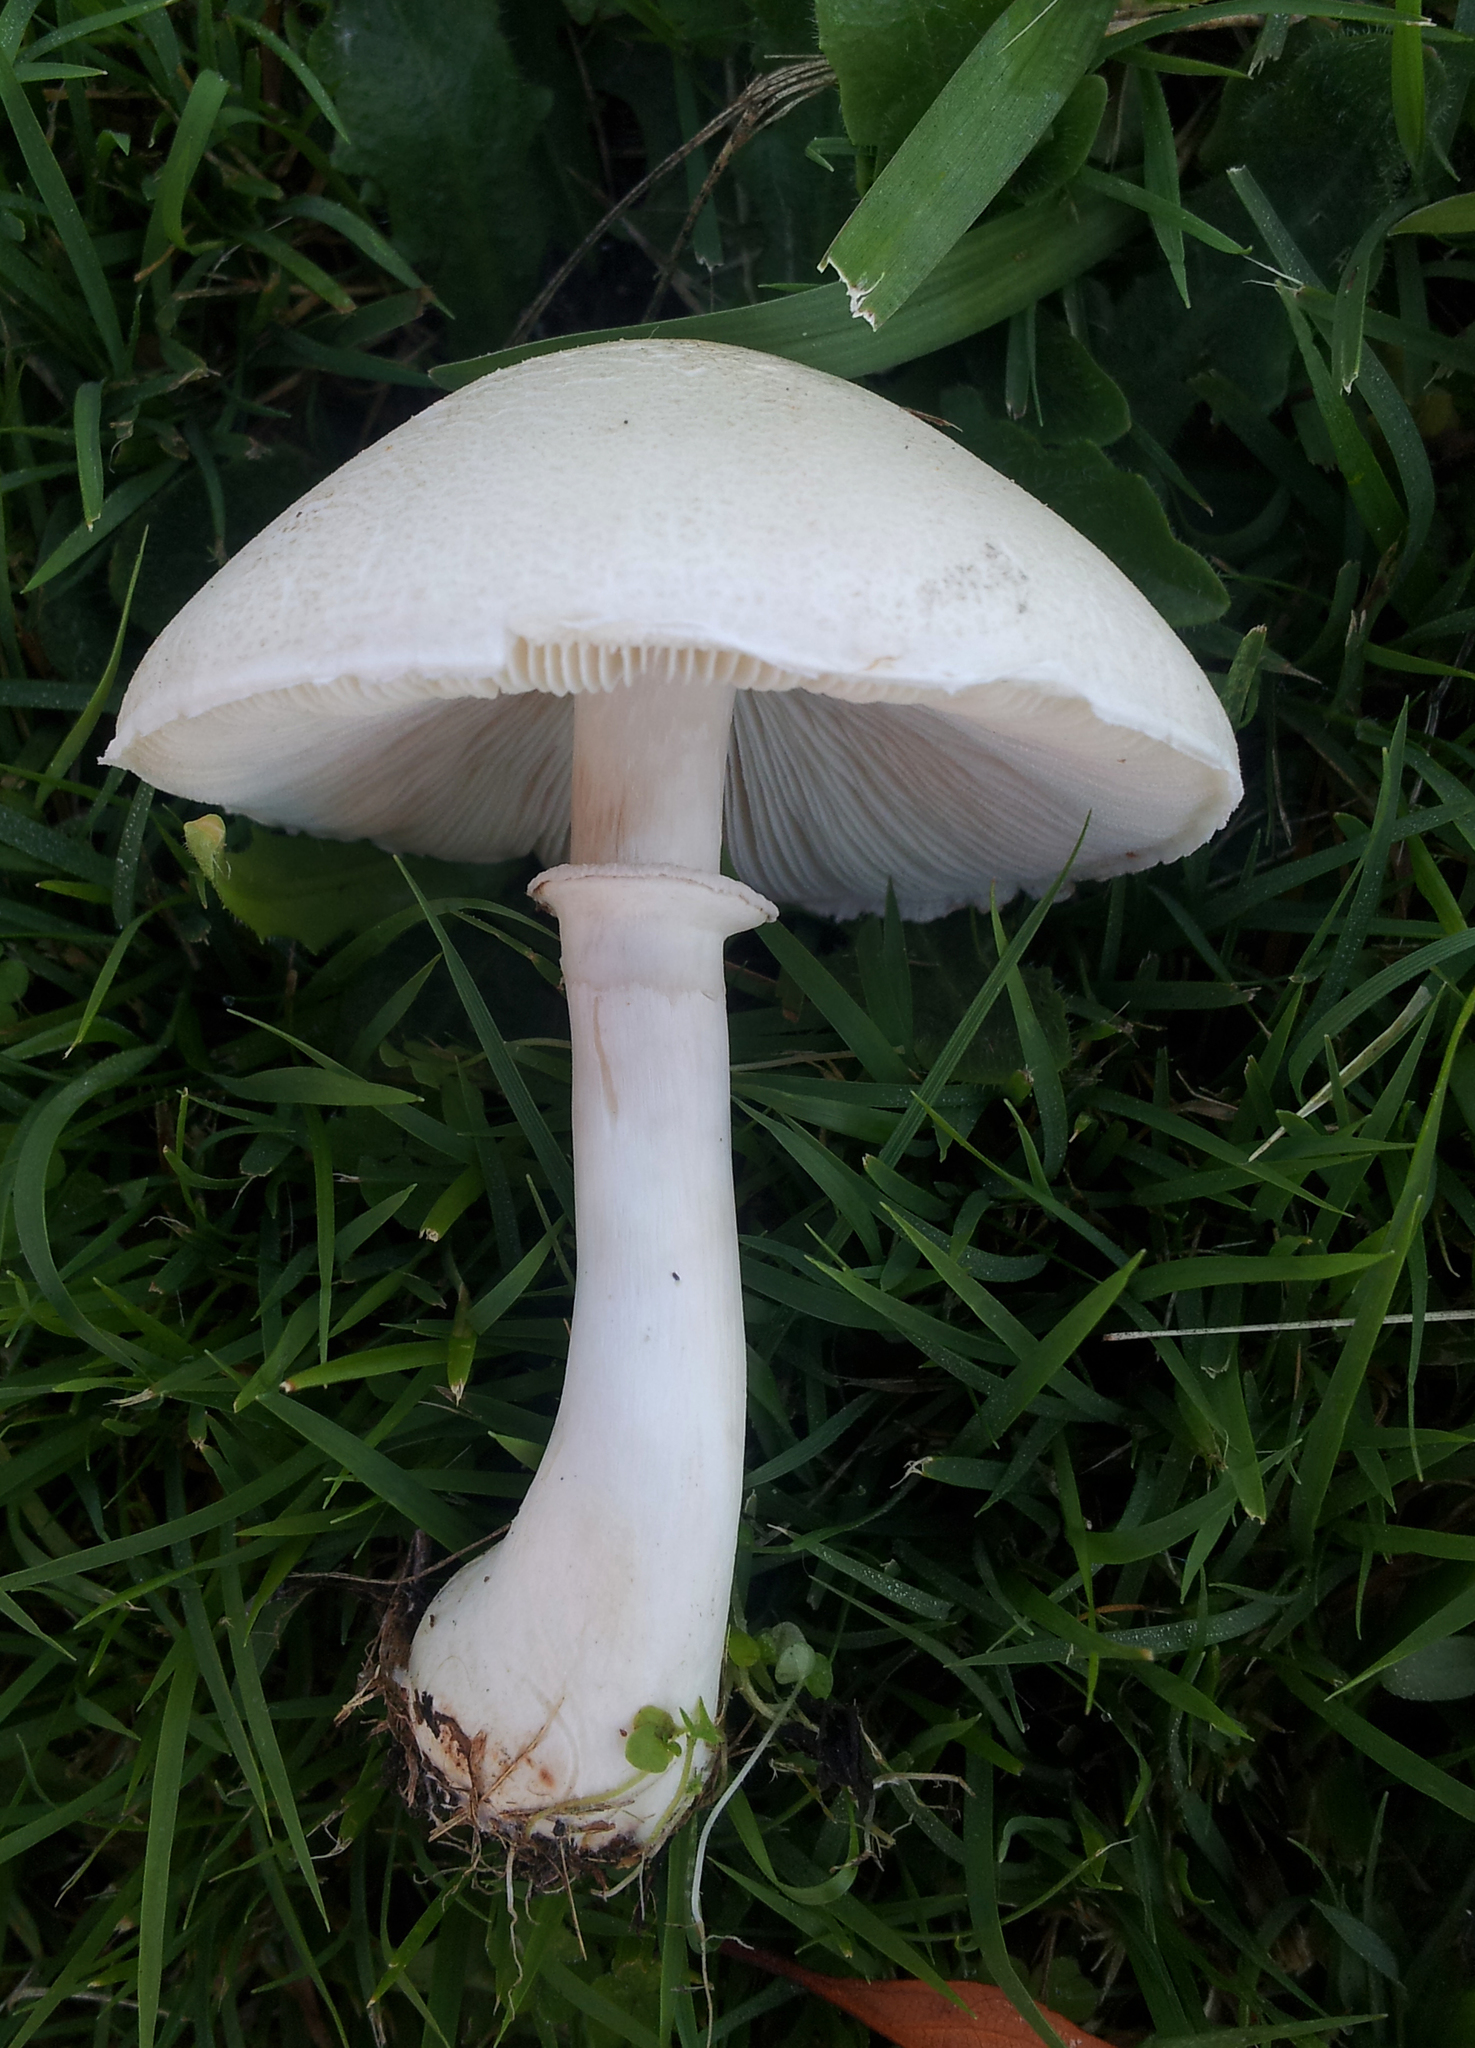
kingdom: Fungi
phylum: Basidiomycota
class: Agaricomycetes
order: Agaricales
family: Agaricaceae
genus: Leucoagaricus
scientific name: Leucoagaricus leucothites
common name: White dapperling
